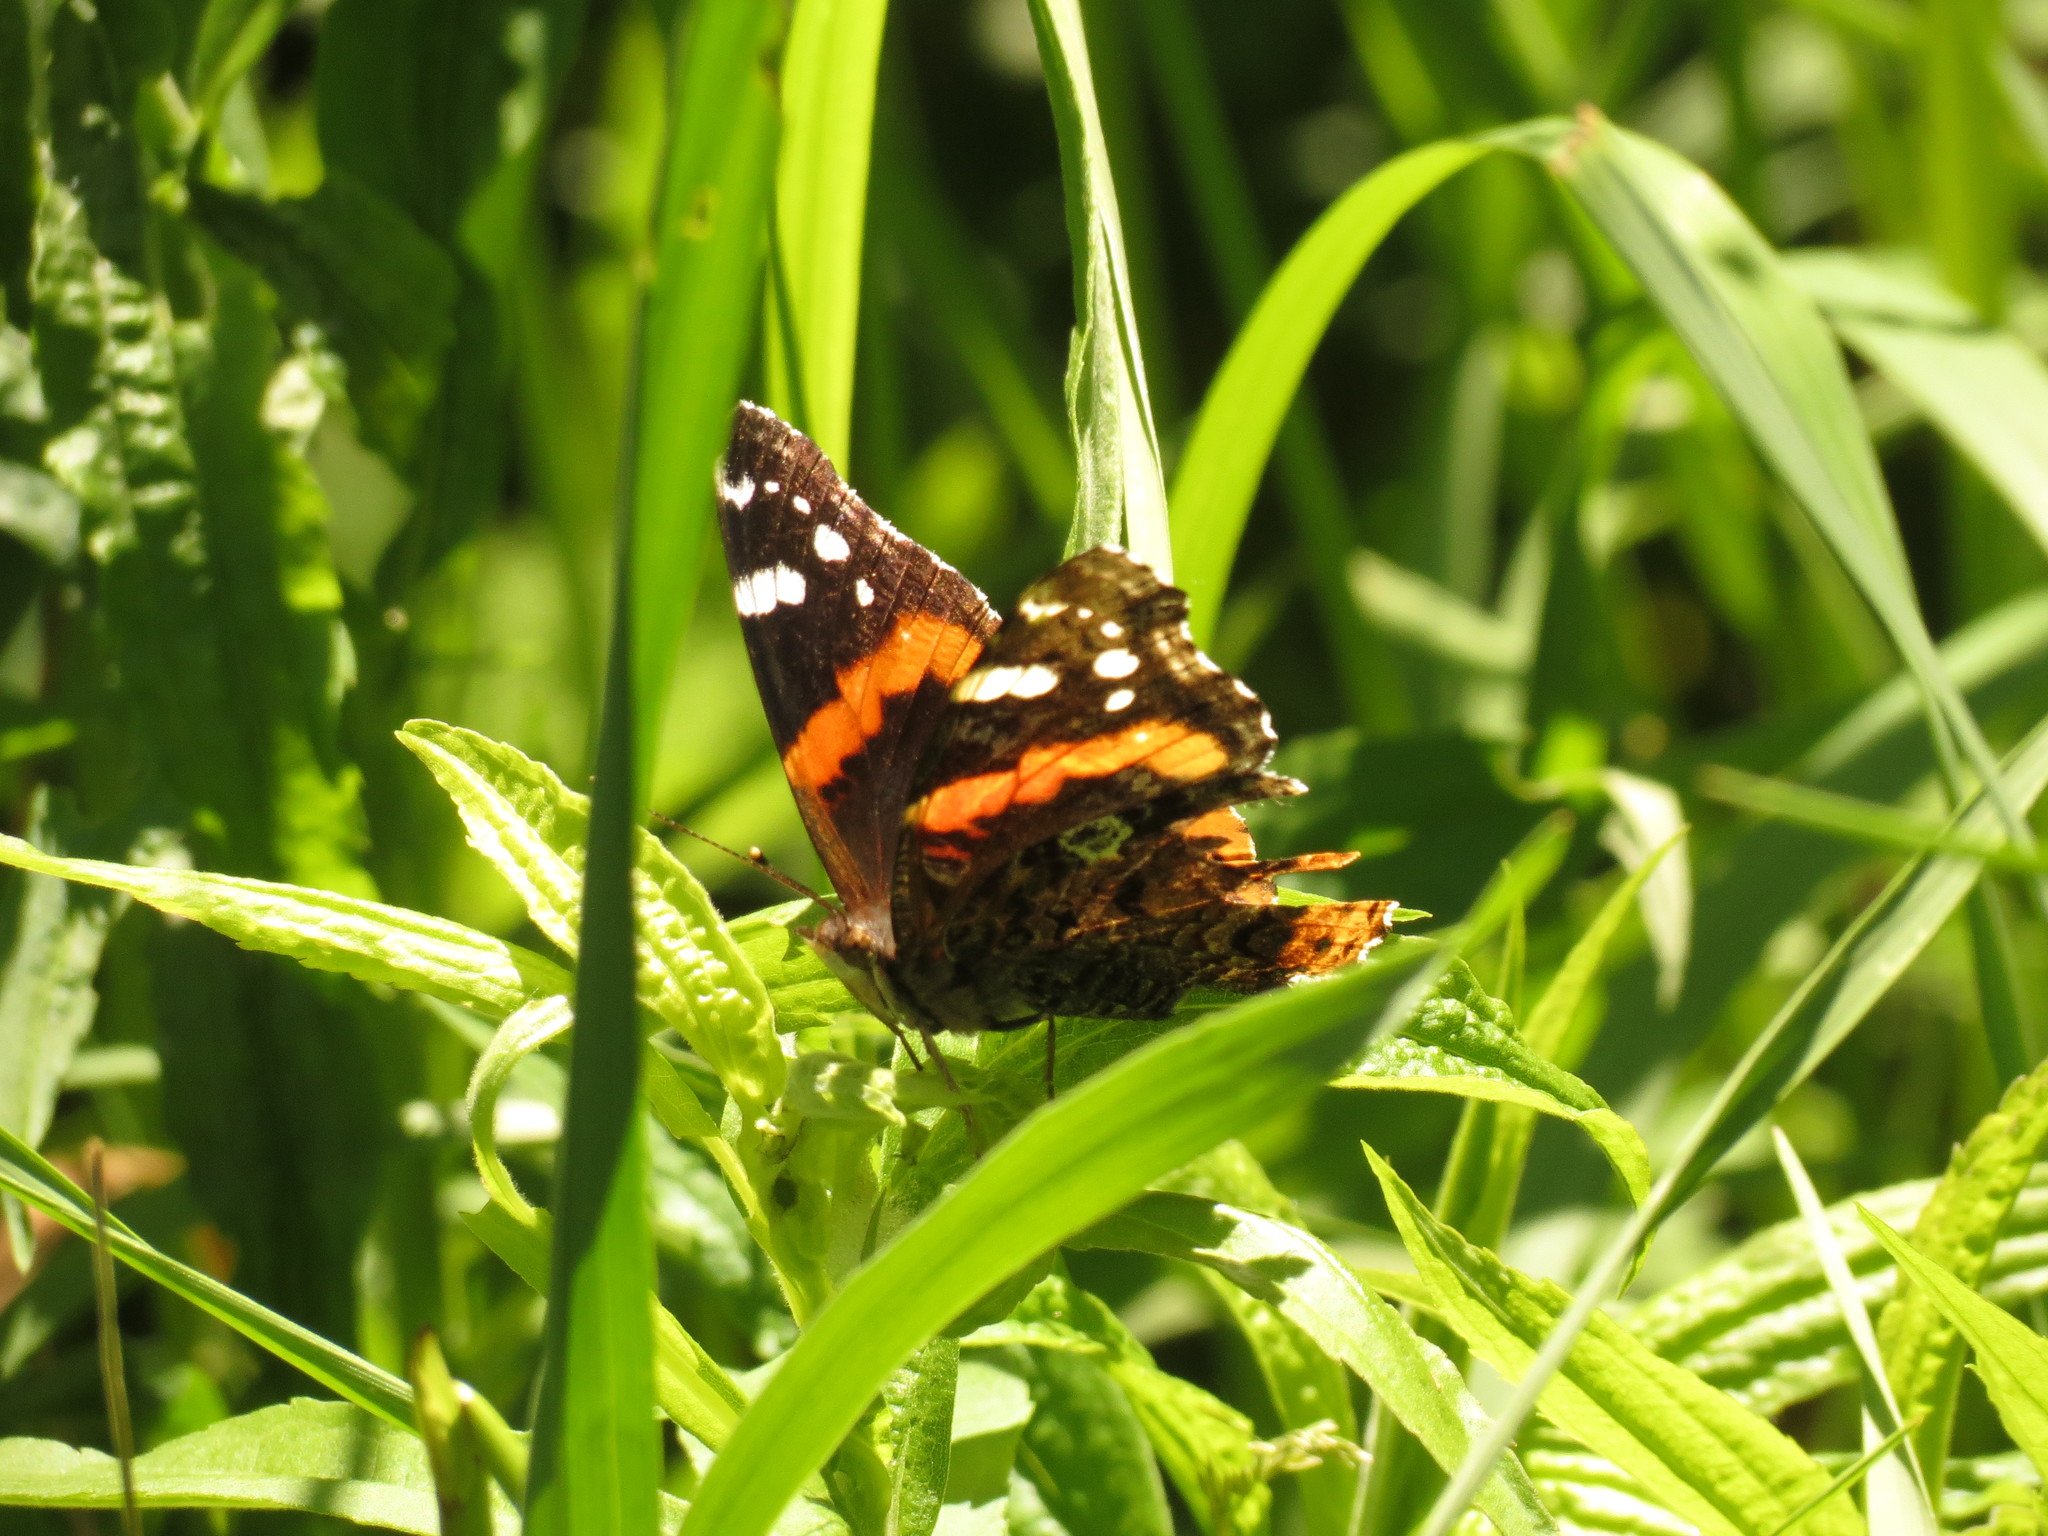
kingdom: Animalia
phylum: Arthropoda
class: Insecta
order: Lepidoptera
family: Nymphalidae
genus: Vanessa
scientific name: Vanessa atalanta
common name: Red admiral
